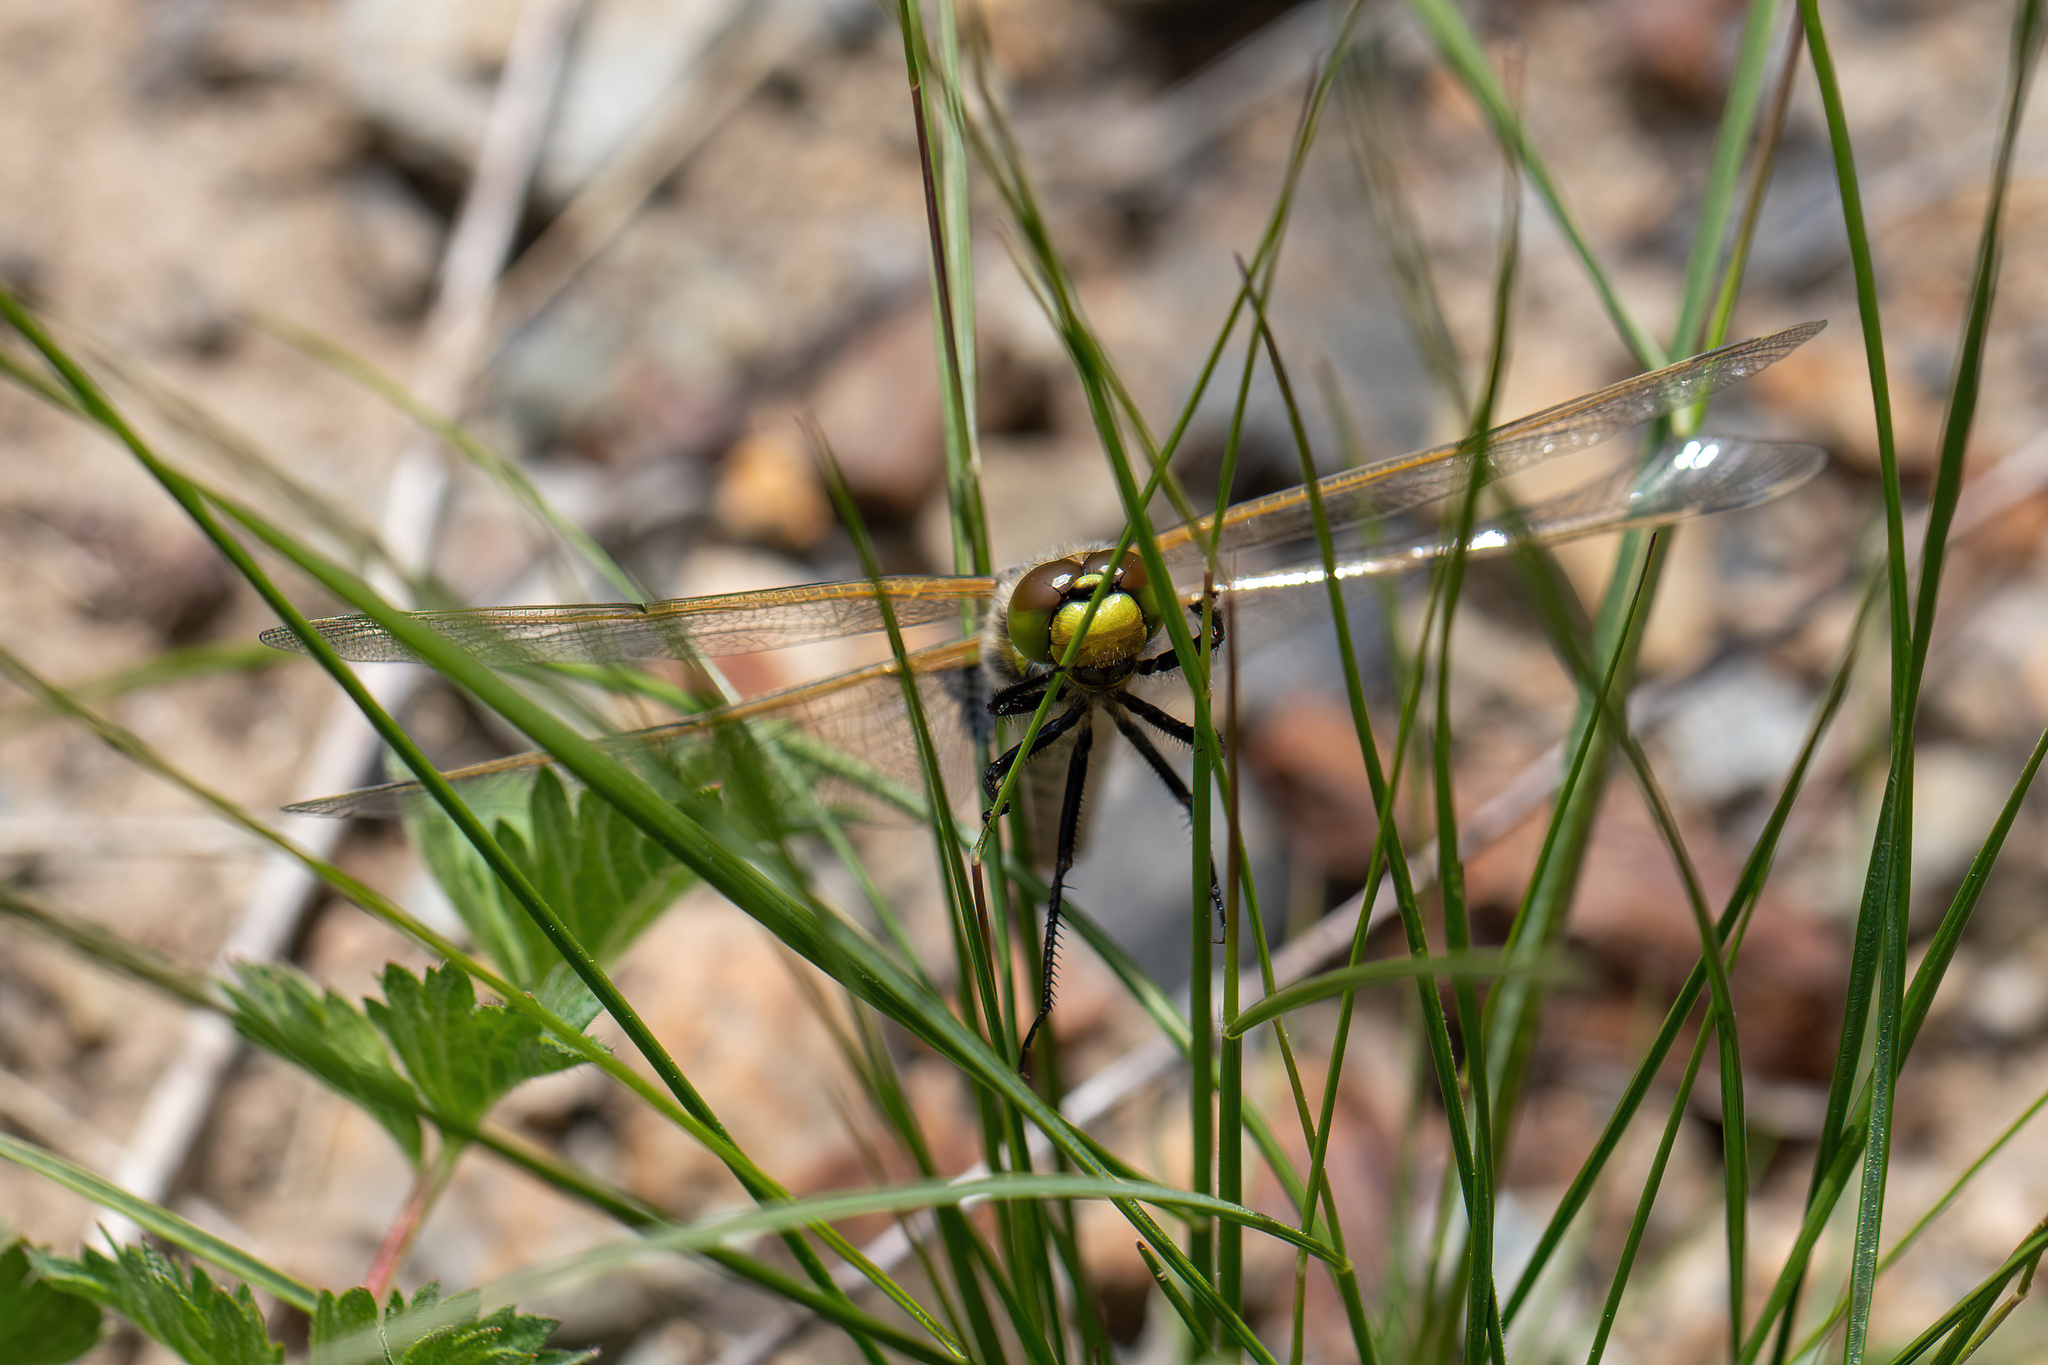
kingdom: Animalia
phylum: Arthropoda
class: Insecta
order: Odonata
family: Libellulidae
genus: Libellula
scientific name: Libellula quadrimaculata
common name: Four-spotted chaser
